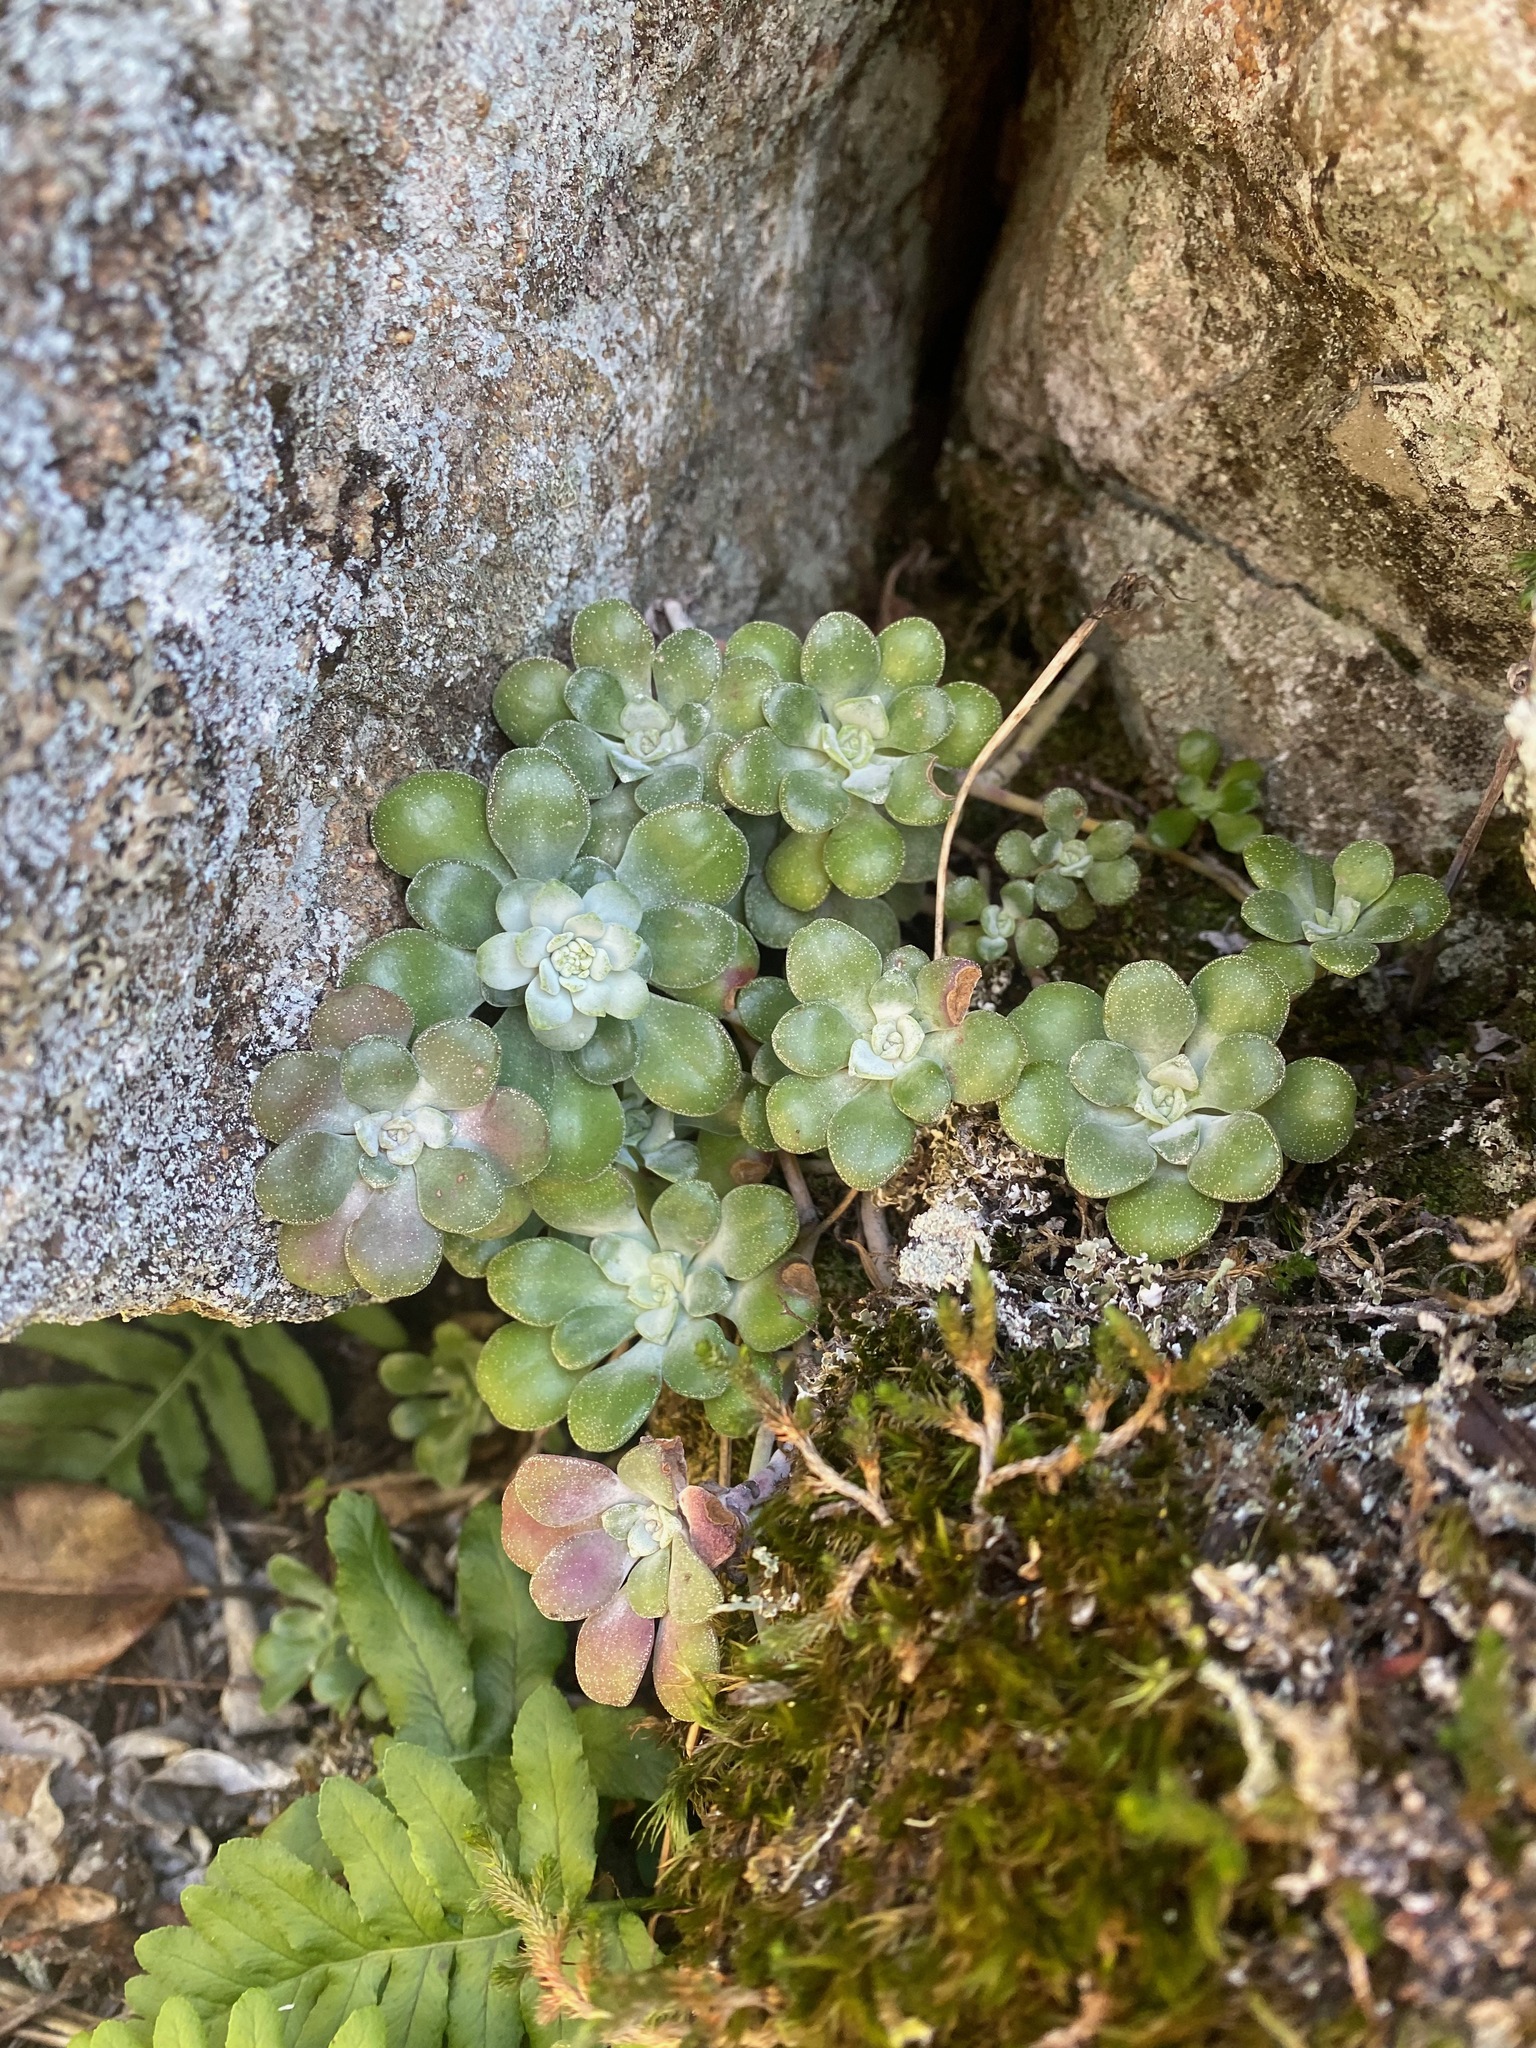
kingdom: Plantae
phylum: Tracheophyta
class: Magnoliopsida
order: Saxifragales
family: Crassulaceae
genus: Sedum
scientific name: Sedum spathulifolium
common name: Colorado stonecrop
